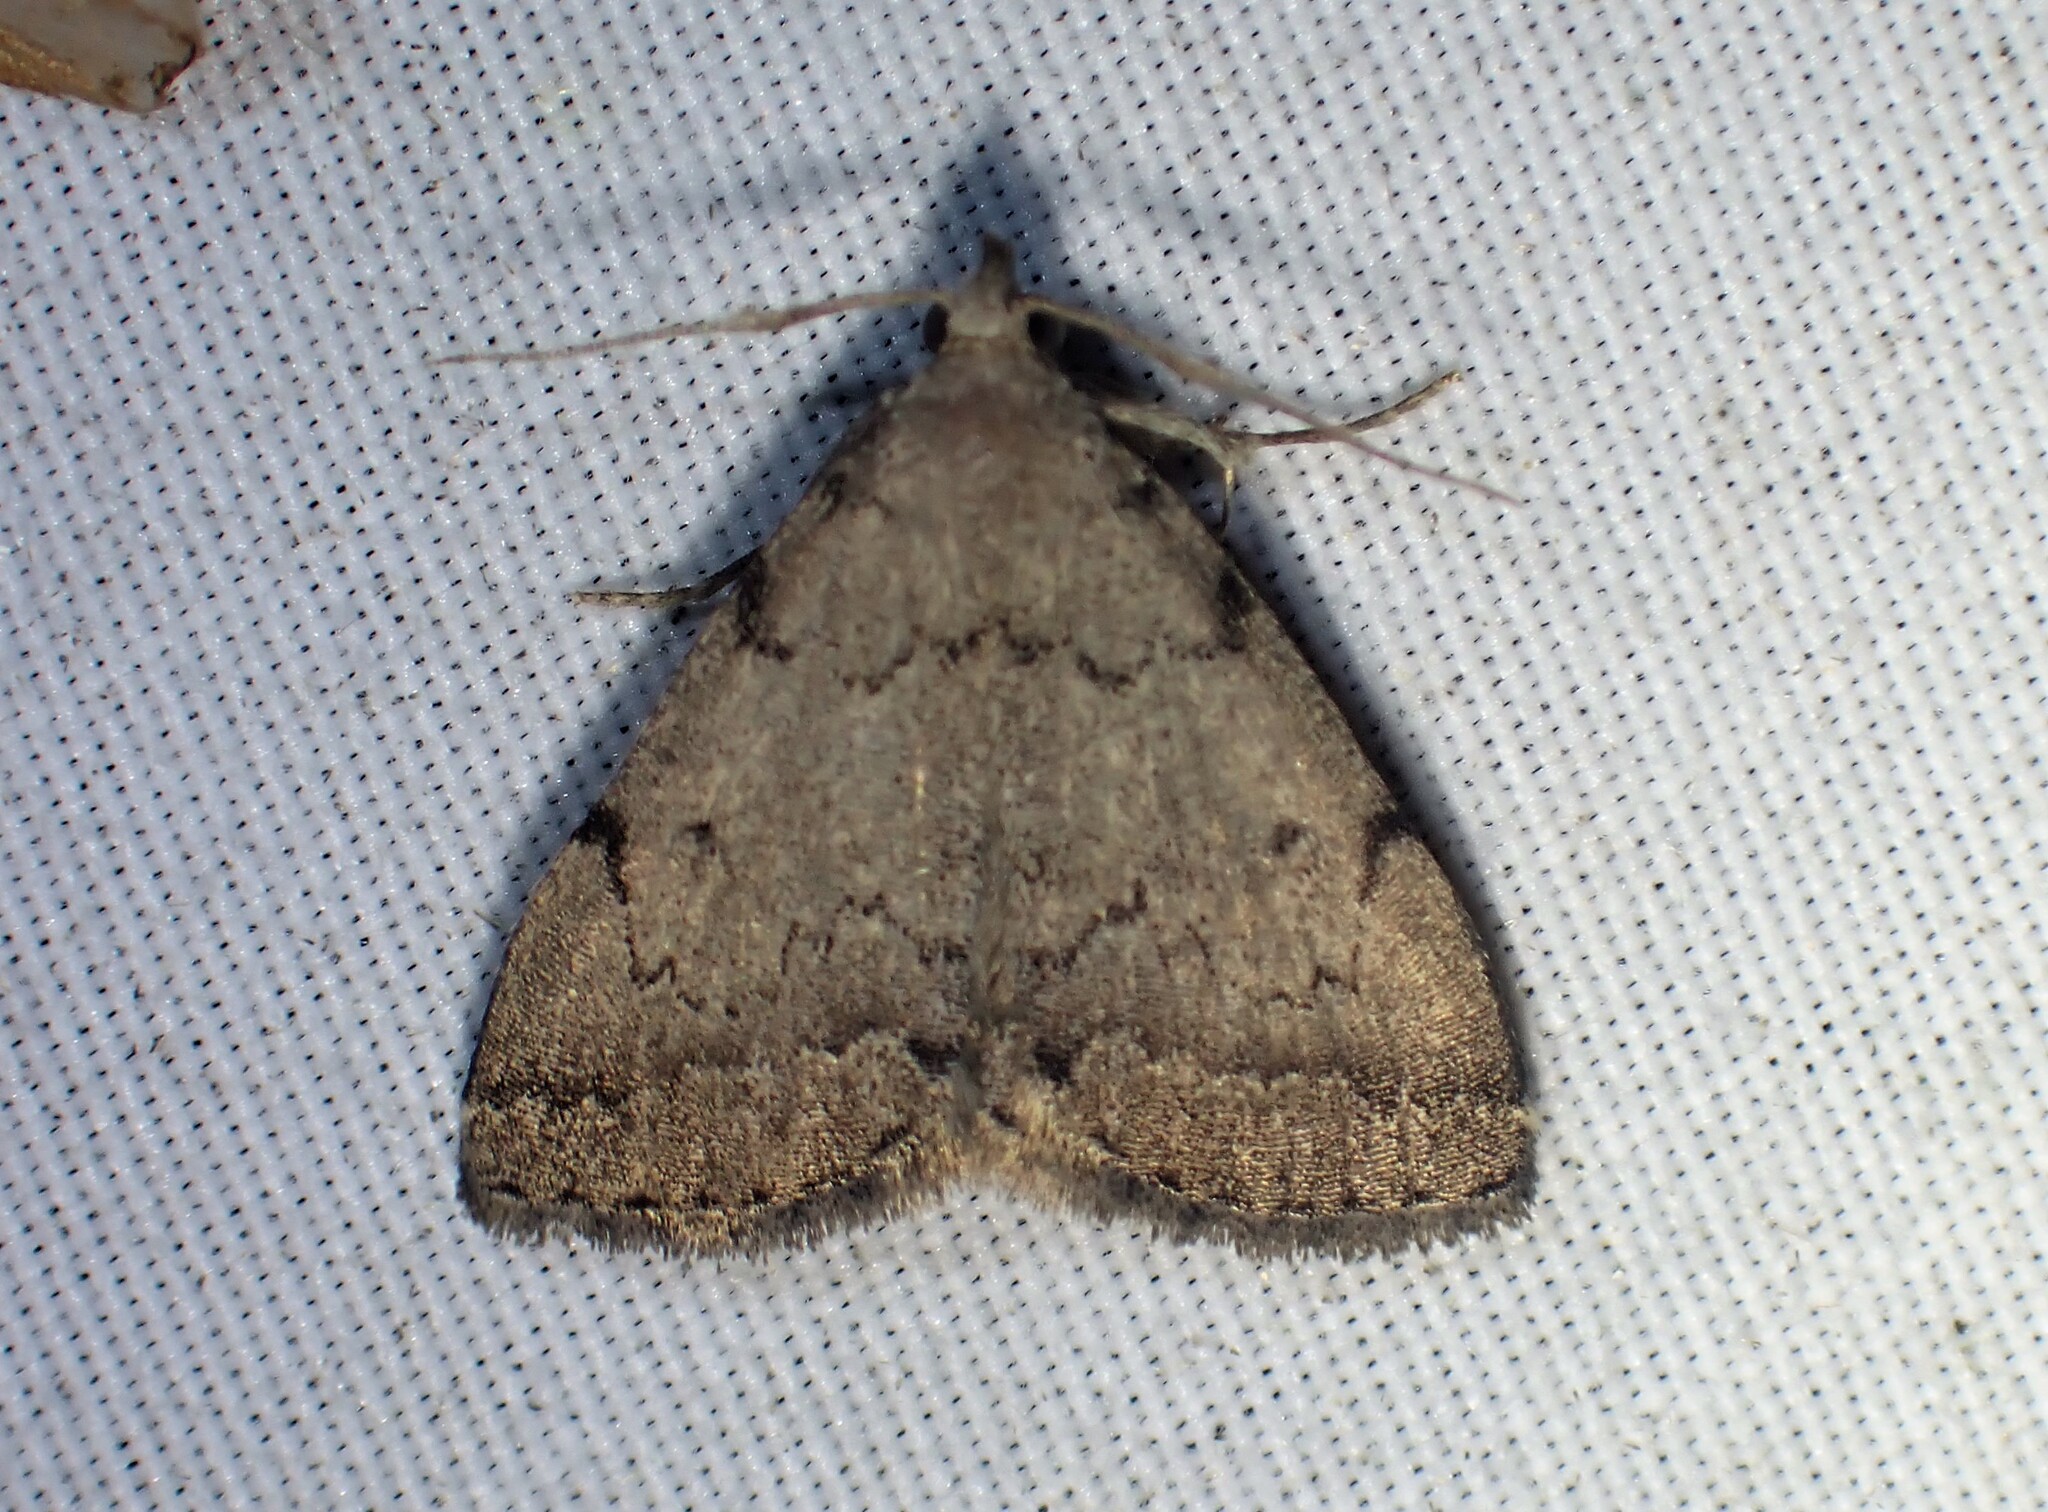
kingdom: Animalia
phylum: Arthropoda
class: Insecta
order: Lepidoptera
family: Erebidae
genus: Zanclognatha
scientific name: Zanclognatha theralis
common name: Flagged fan-foot
